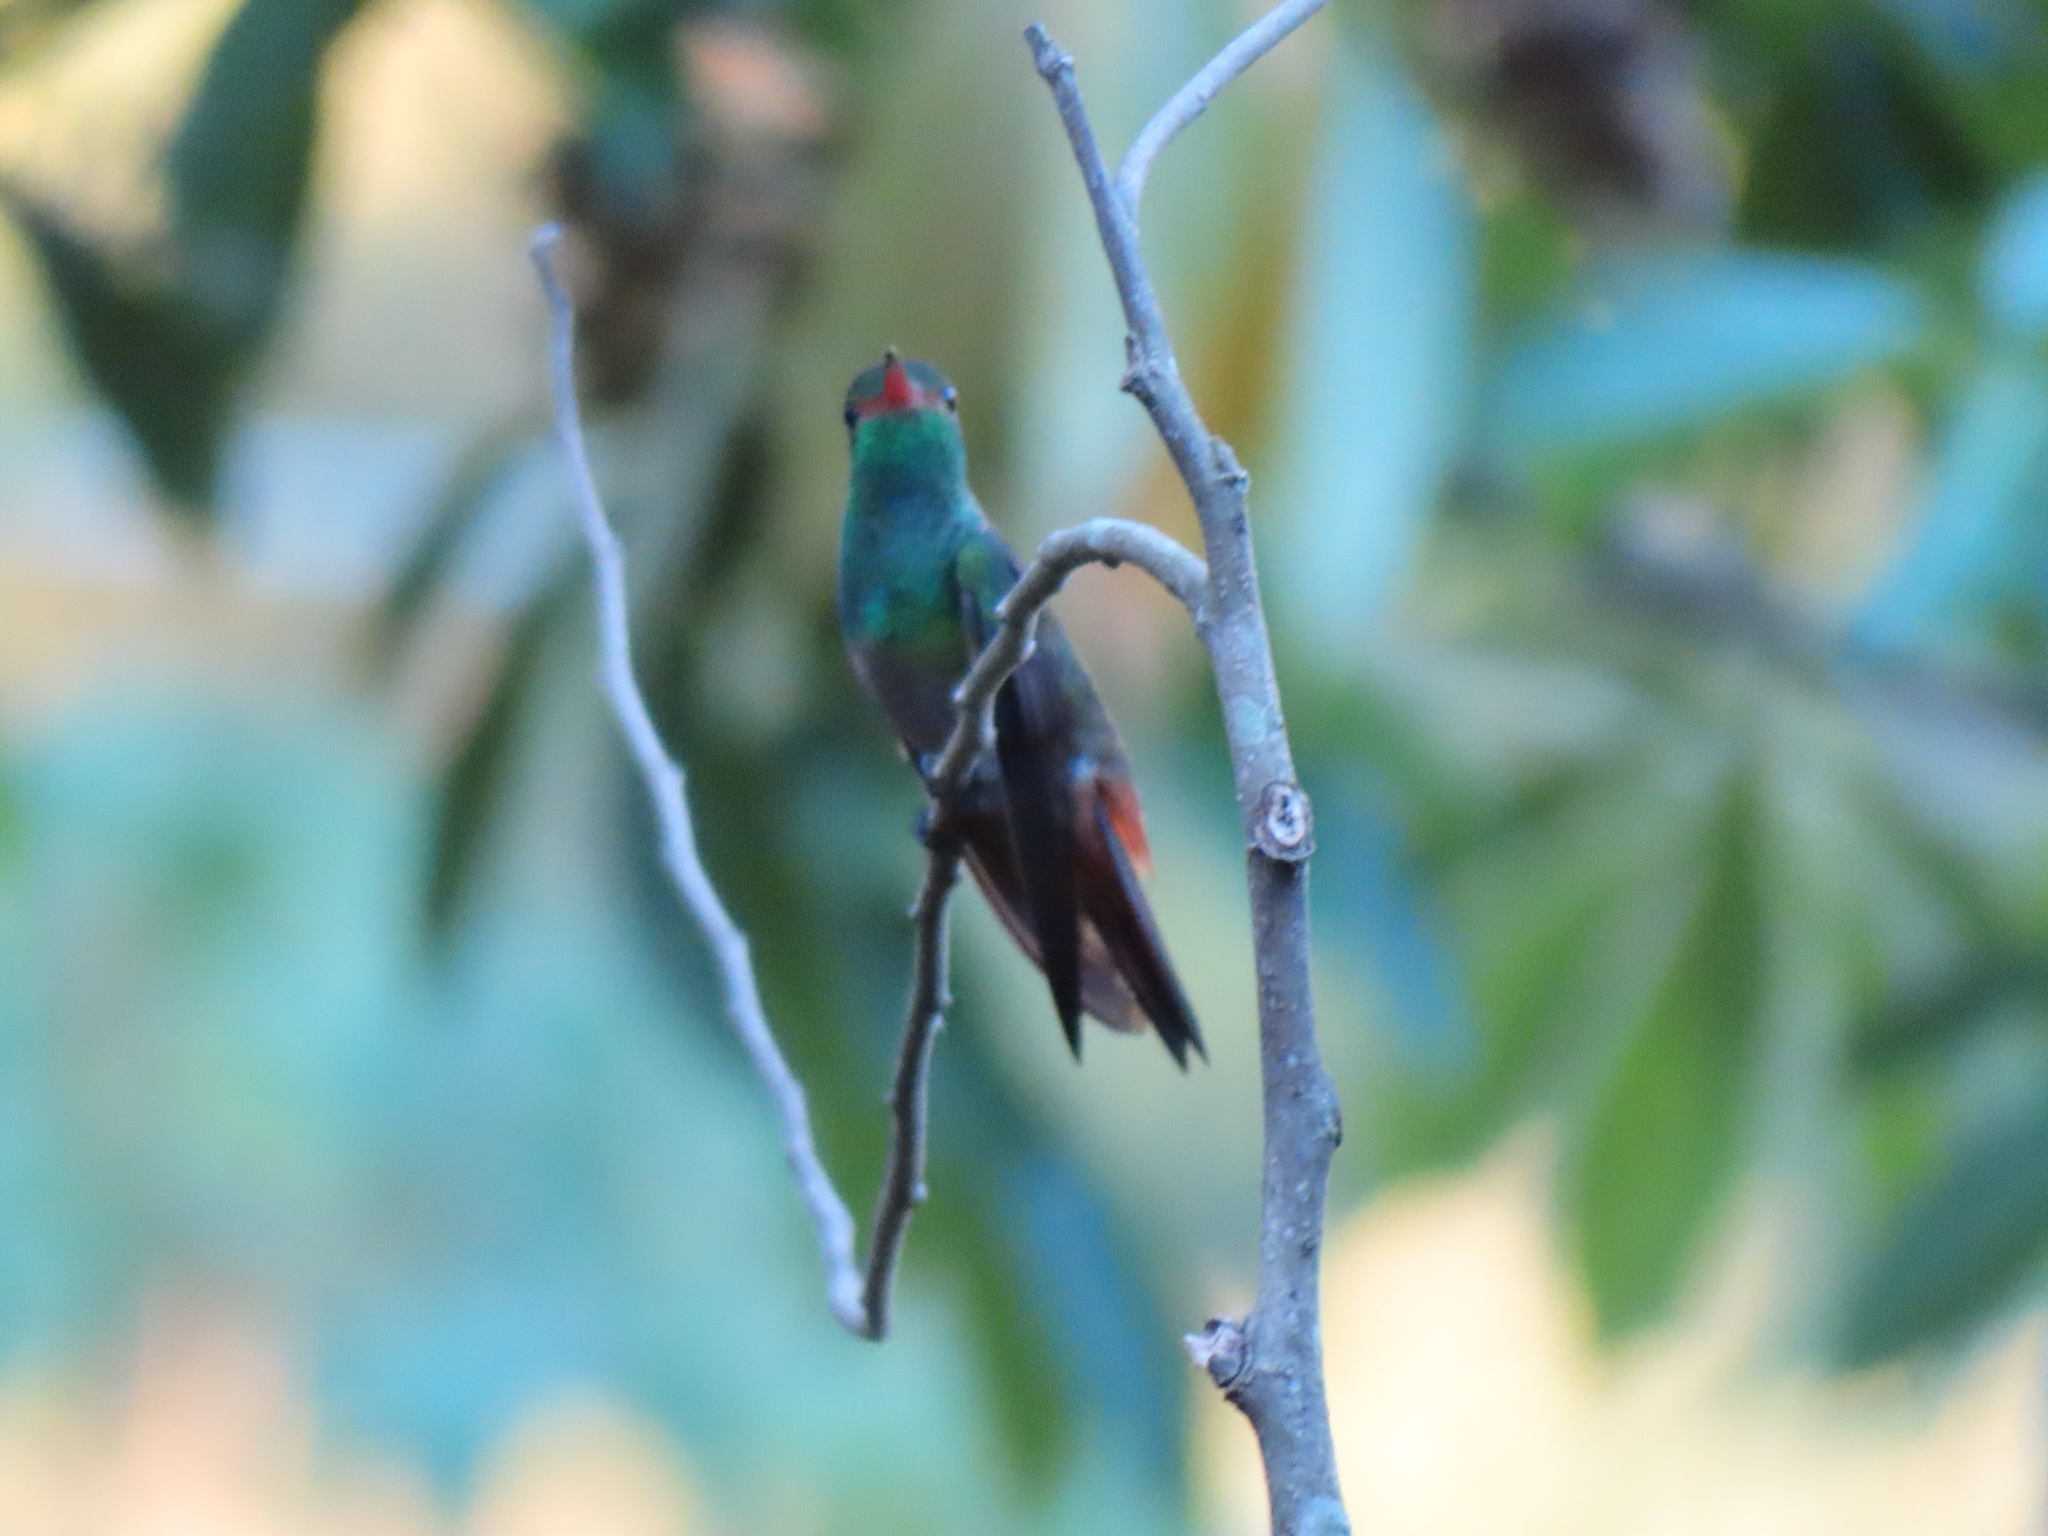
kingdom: Animalia
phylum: Chordata
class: Aves
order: Apodiformes
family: Trochilidae
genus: Amazilia
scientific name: Amazilia tzacatl
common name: Rufous-tailed hummingbird
